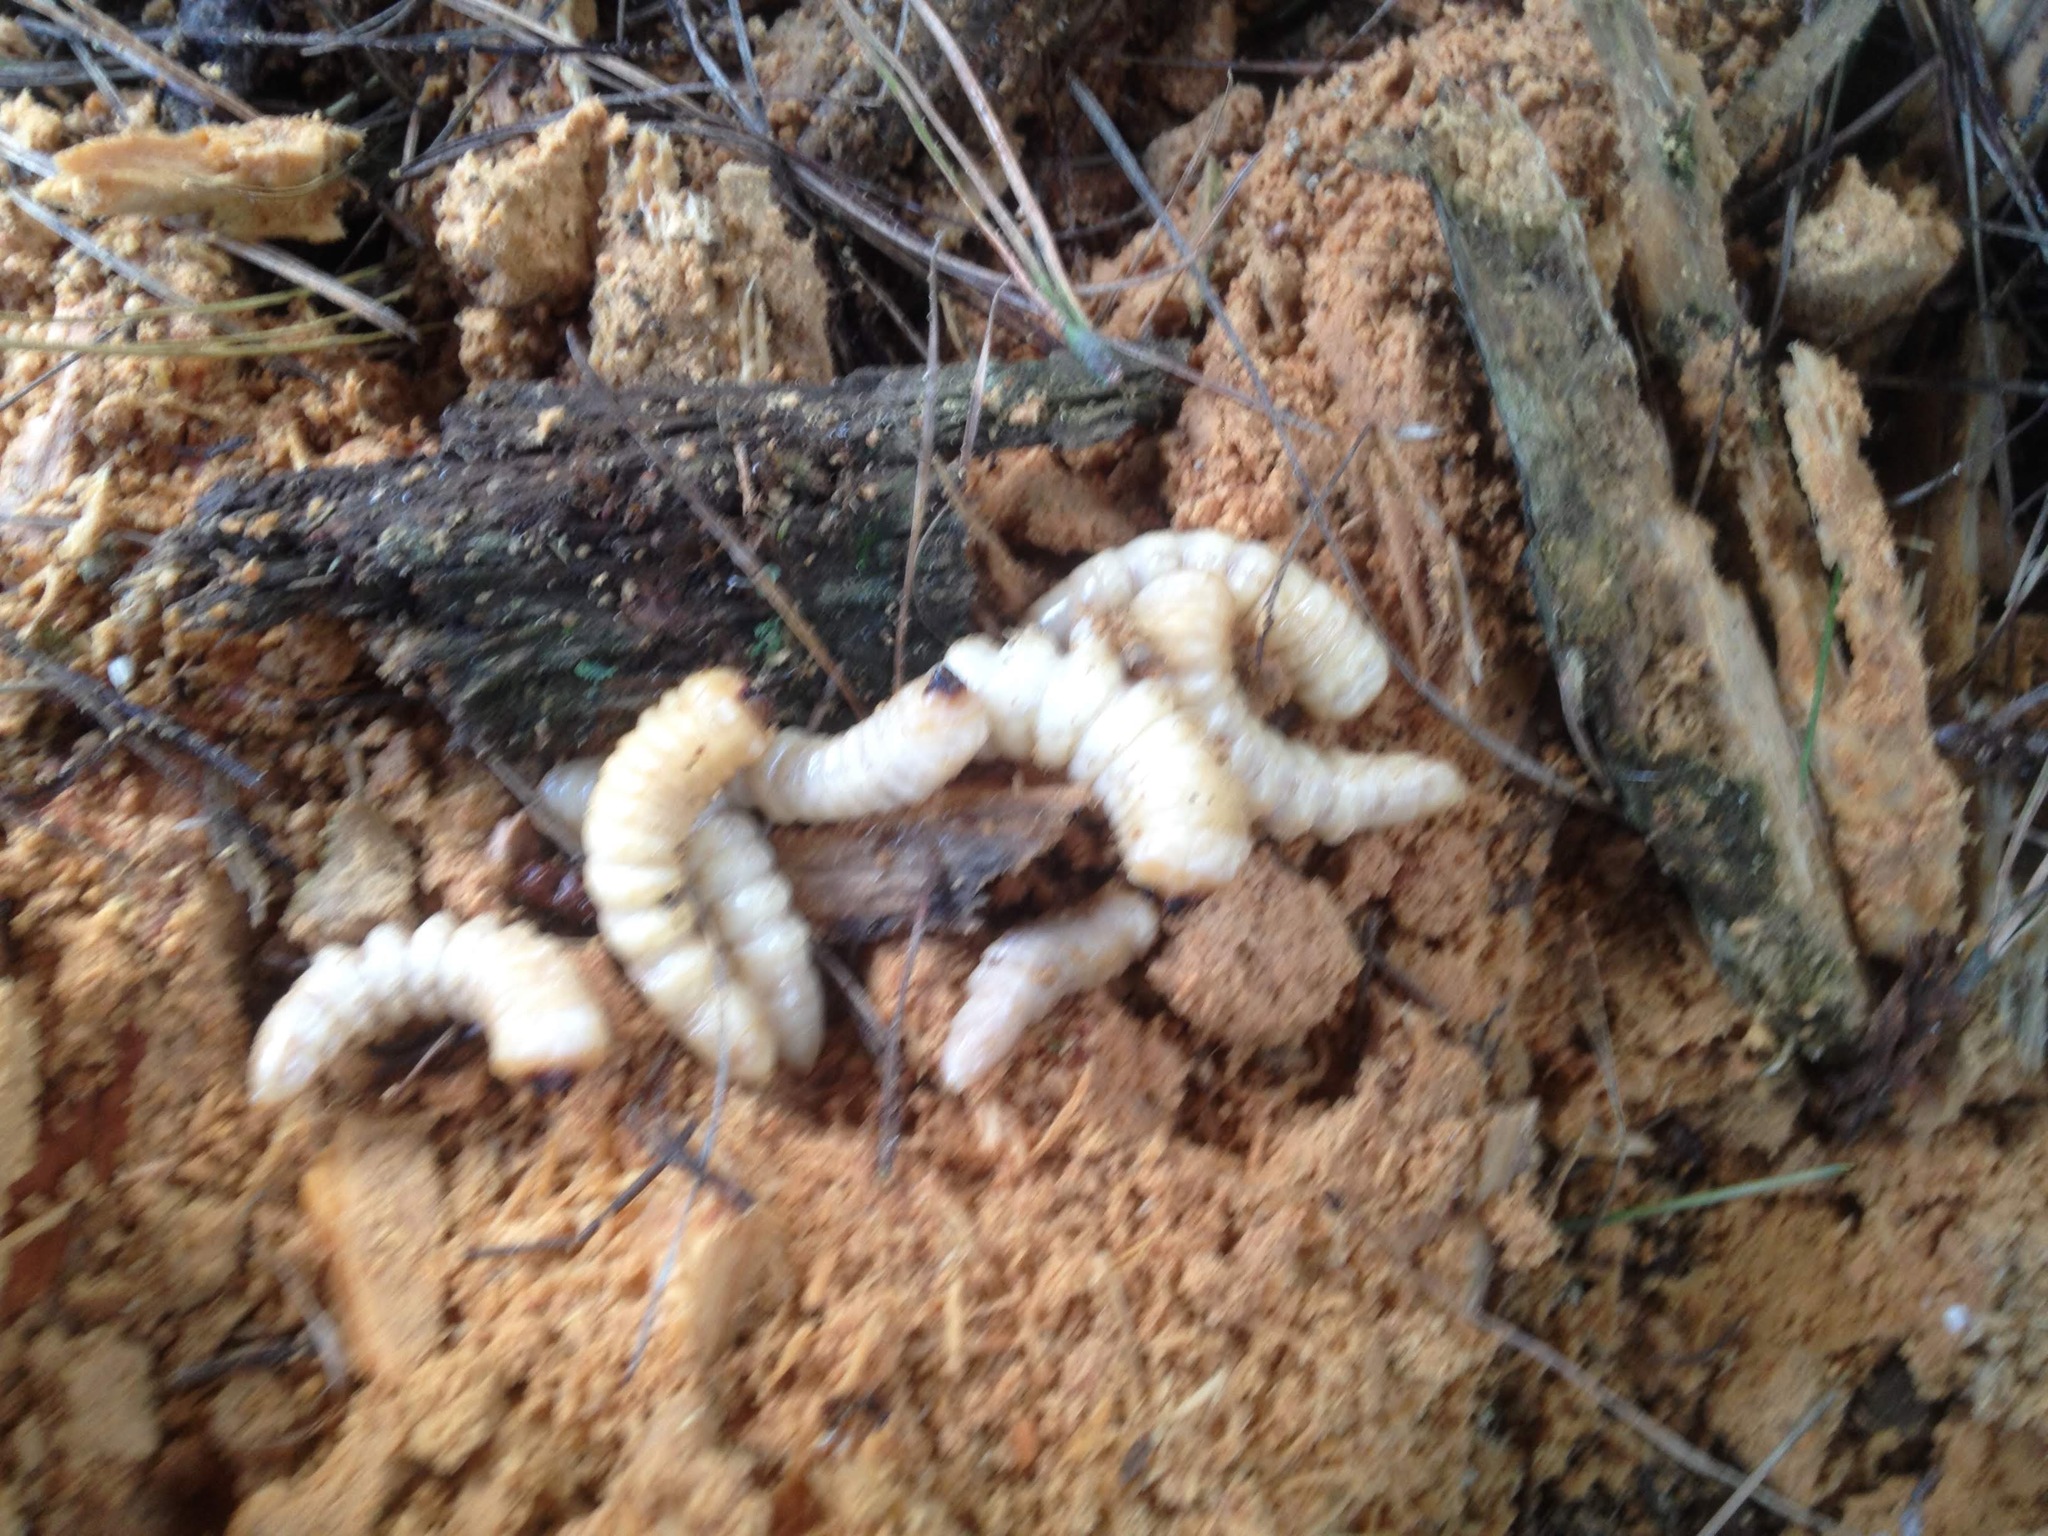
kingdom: Animalia
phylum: Arthropoda
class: Insecta
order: Coleoptera
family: Cerambycidae
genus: Prionoplus
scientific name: Prionoplus reticularis
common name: Huhu beetle
